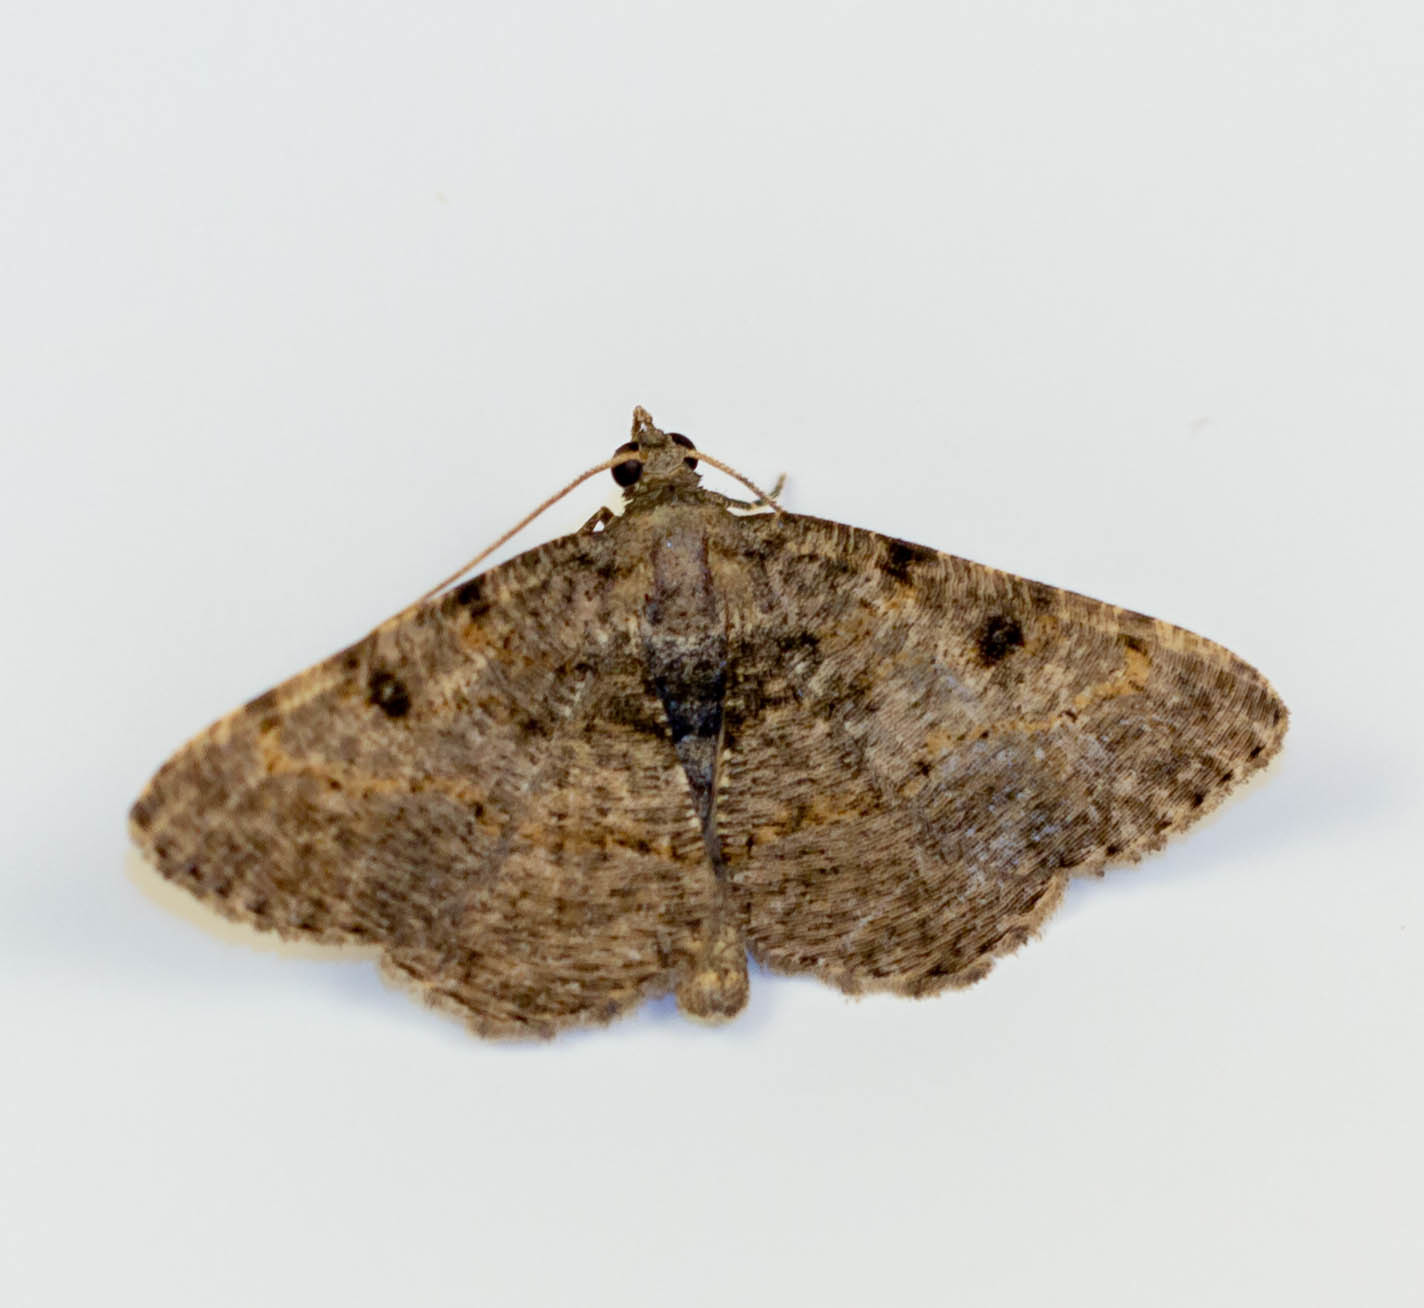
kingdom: Animalia
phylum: Arthropoda
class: Insecta
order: Lepidoptera
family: Geometridae
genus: Digrammia
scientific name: Digrammia gnophosaria
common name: Hollow-spotted angle
